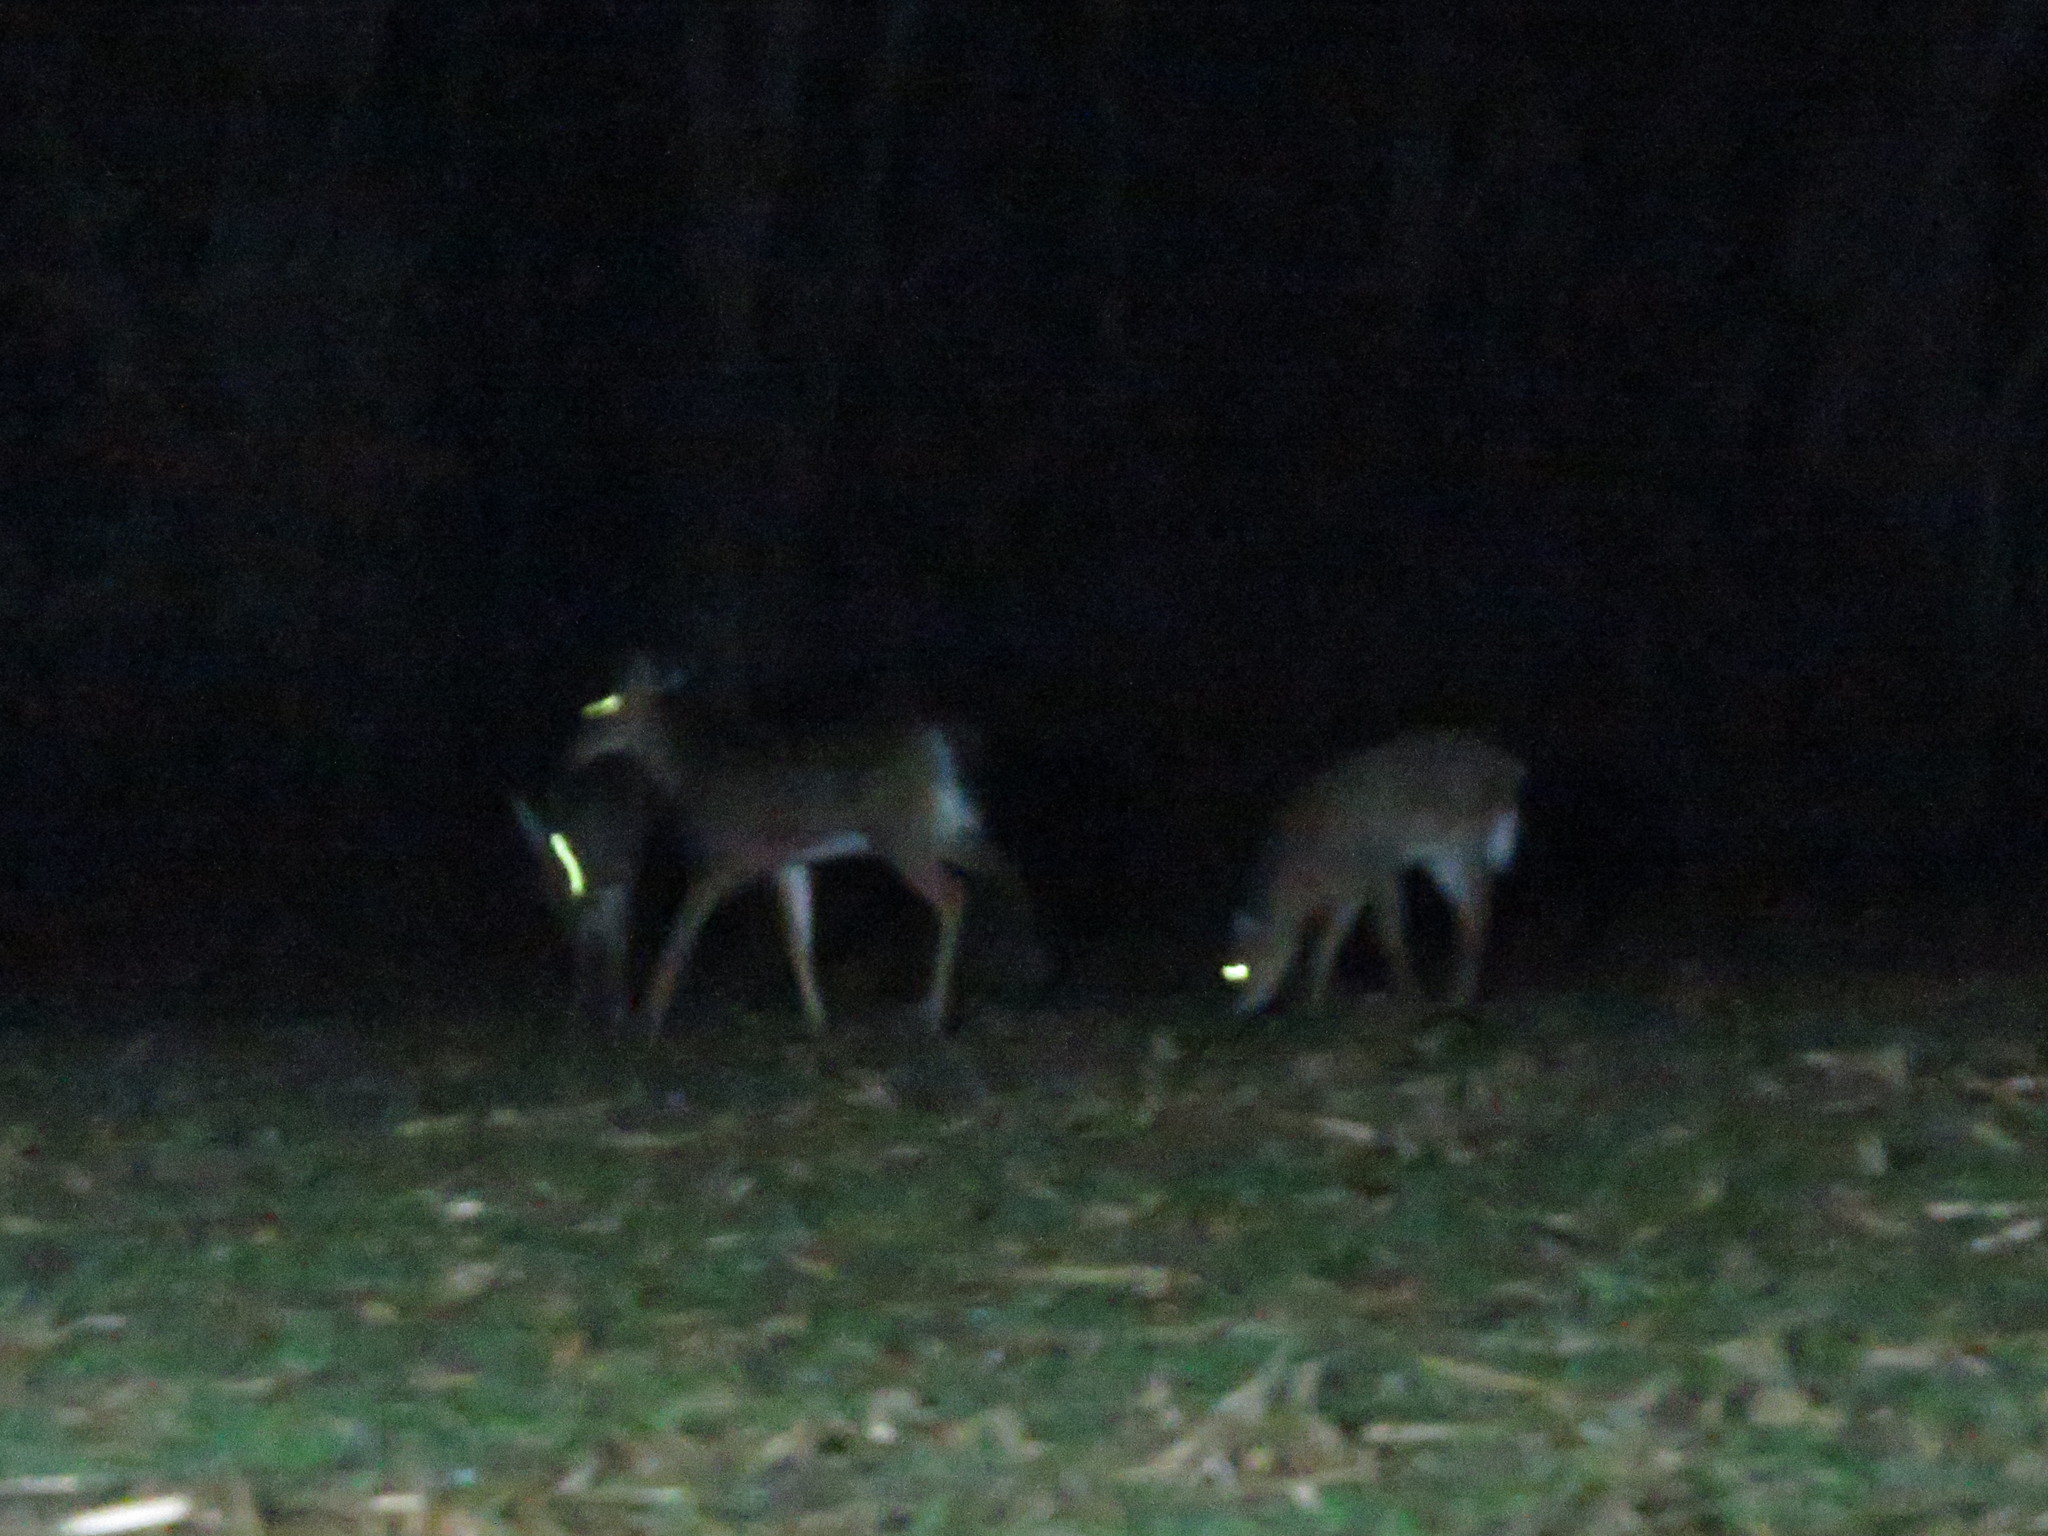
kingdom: Animalia
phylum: Chordata
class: Mammalia
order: Artiodactyla
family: Cervidae
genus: Odocoileus
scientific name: Odocoileus virginianus
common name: White-tailed deer
